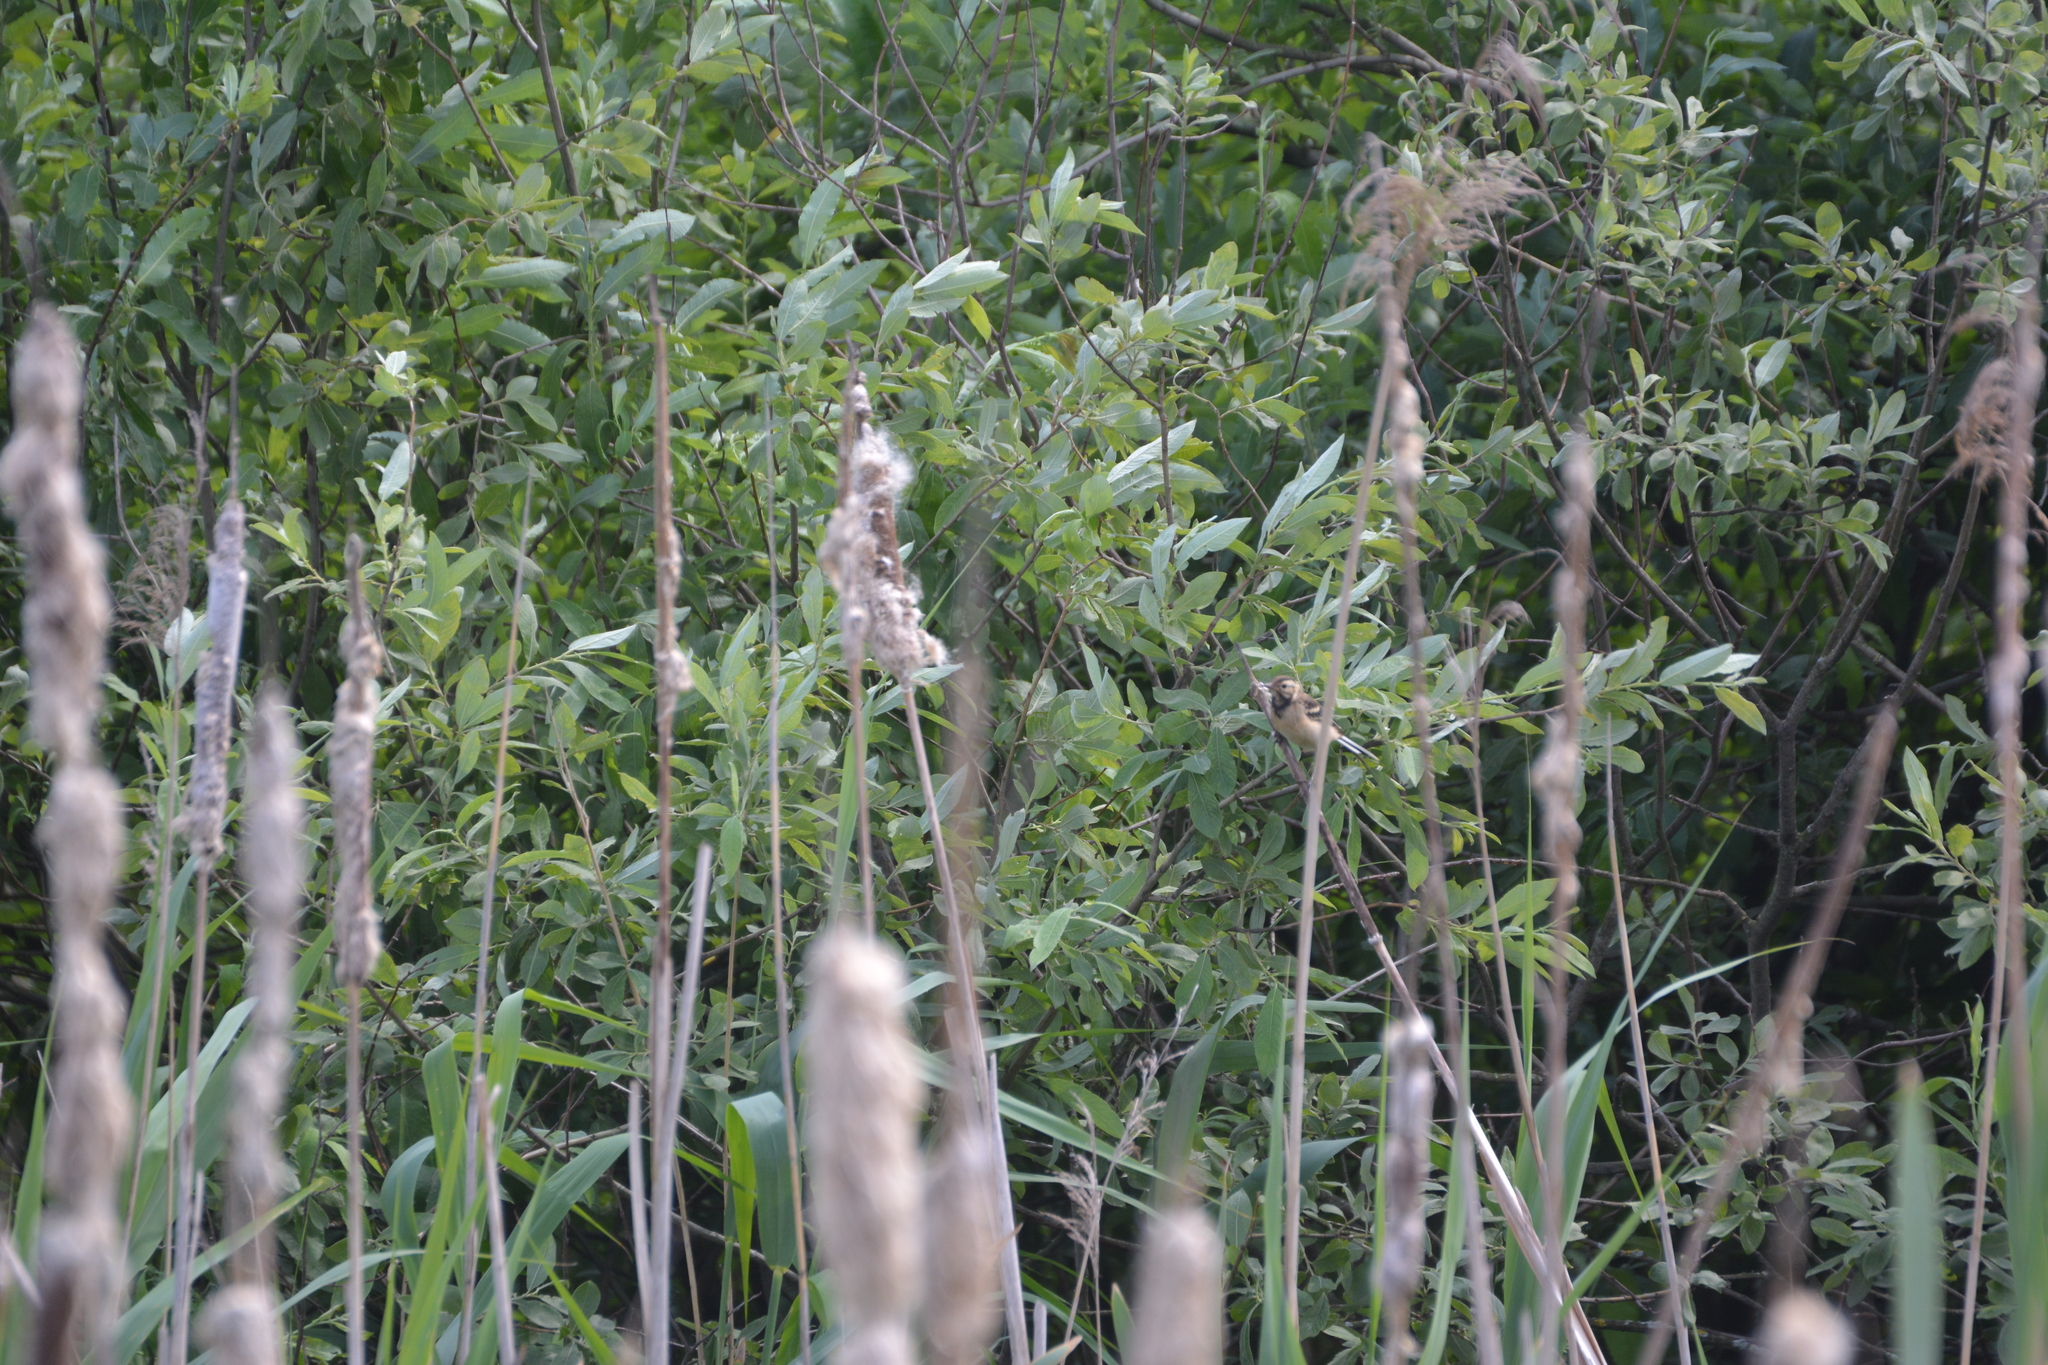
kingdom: Animalia
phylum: Chordata
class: Aves
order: Passeriformes
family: Motacillidae
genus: Motacilla
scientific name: Motacilla flava
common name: Western yellow wagtail
